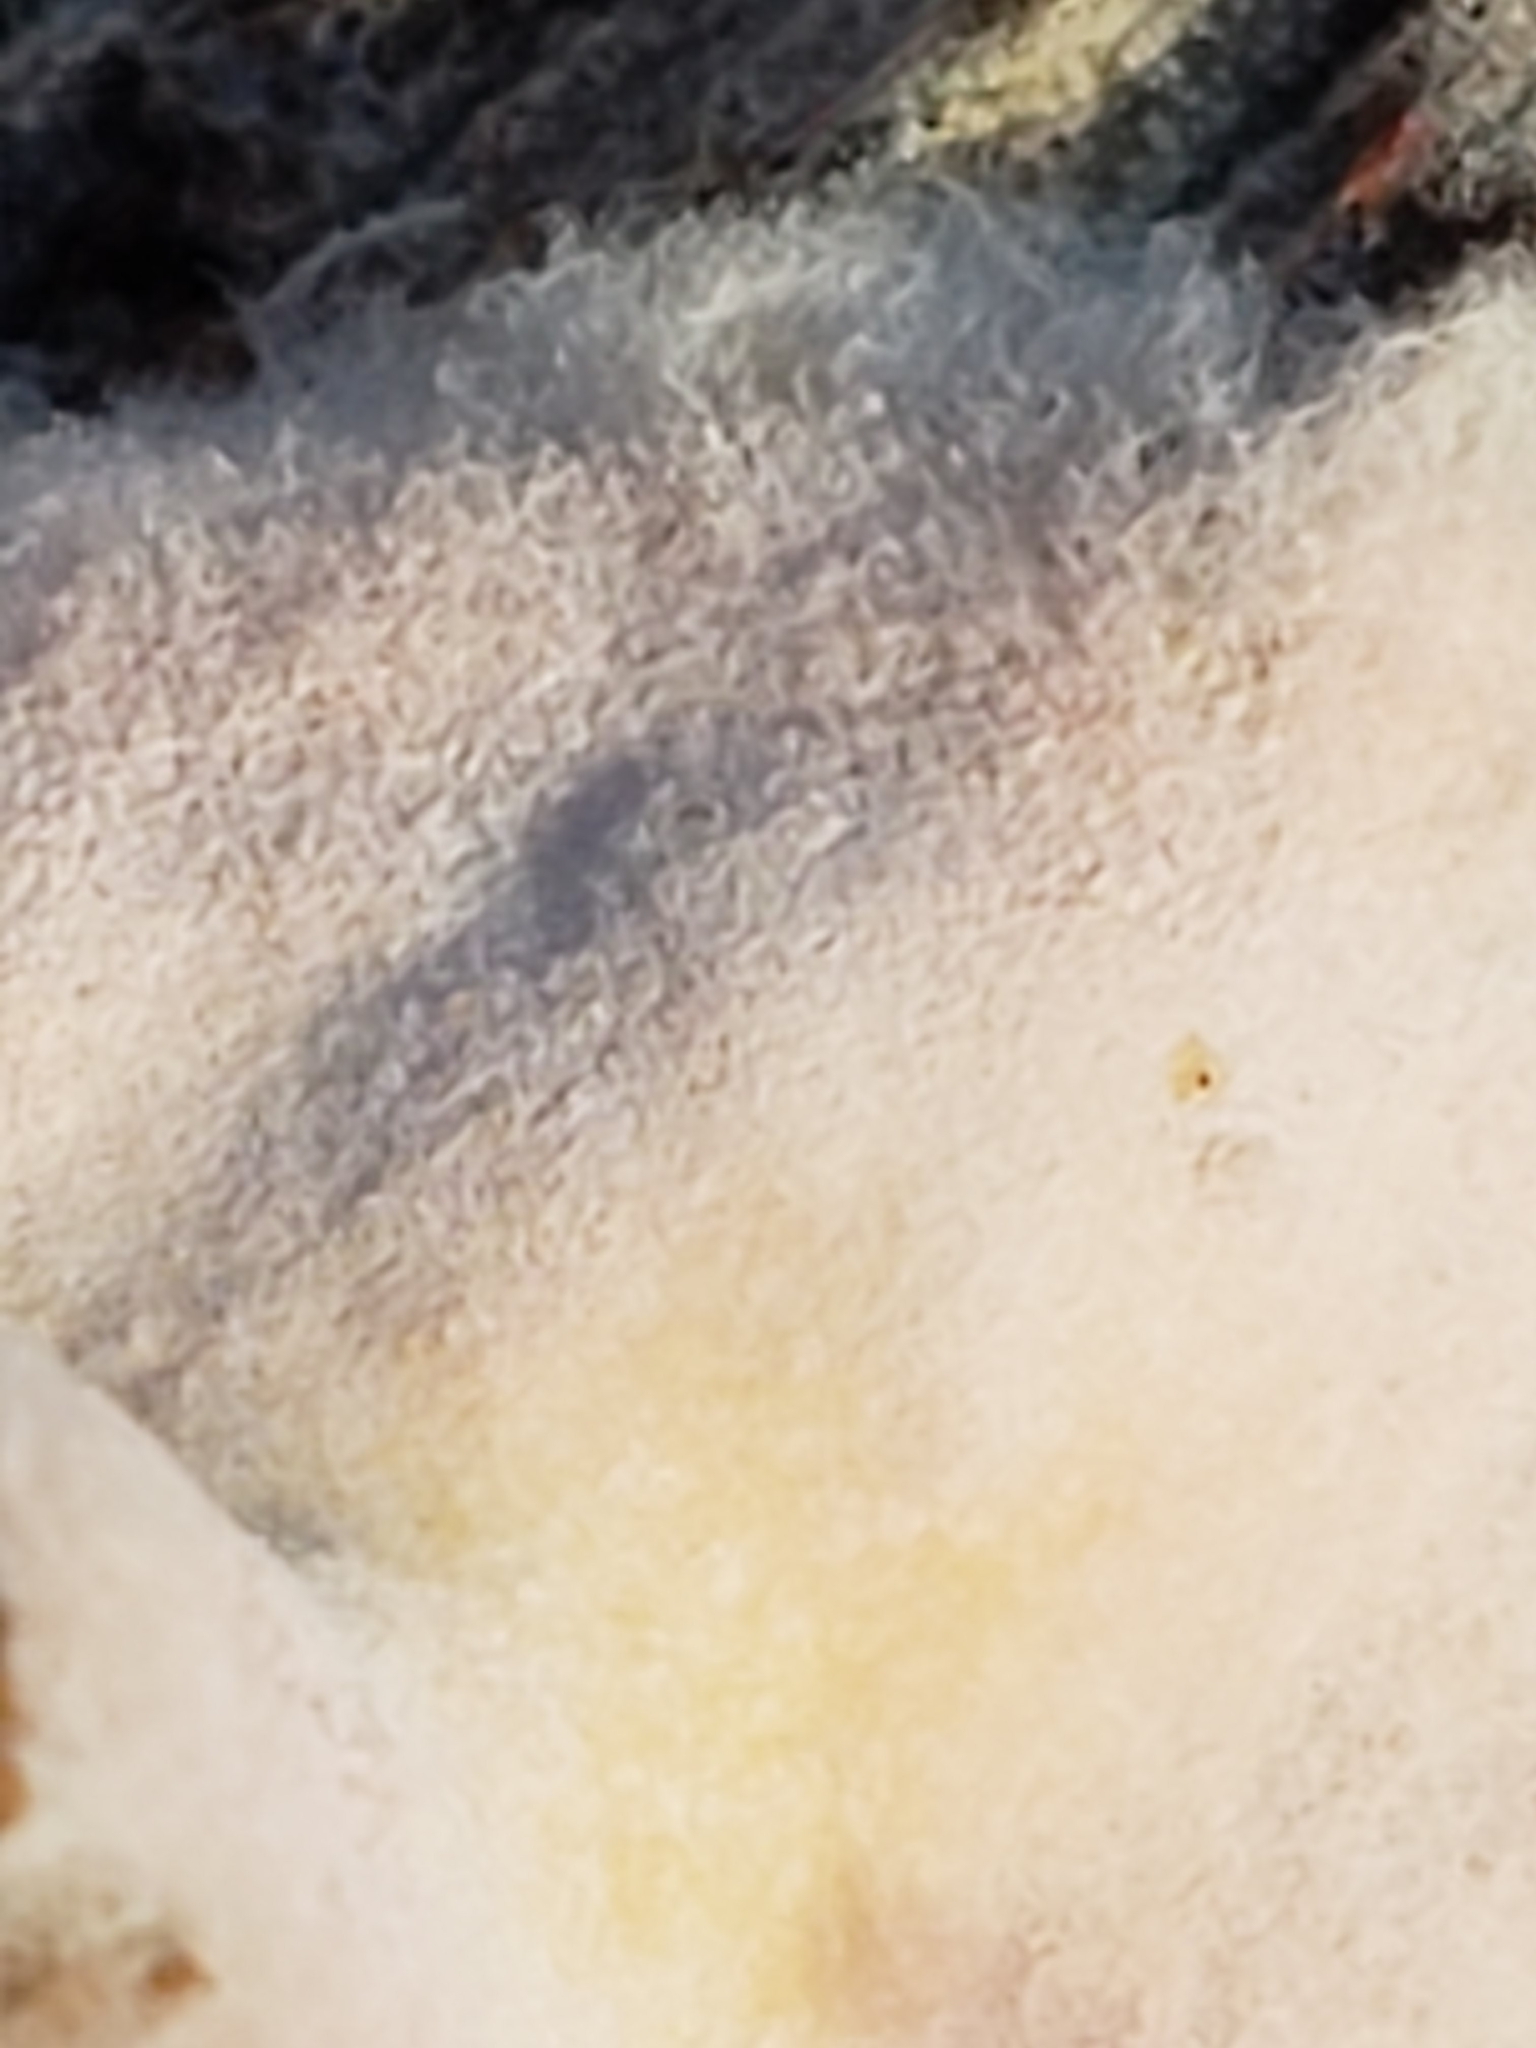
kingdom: Fungi
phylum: Basidiomycota
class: Agaricomycetes
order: Boletales
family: Serpulaceae
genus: Serpula
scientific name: Serpula himantioides
